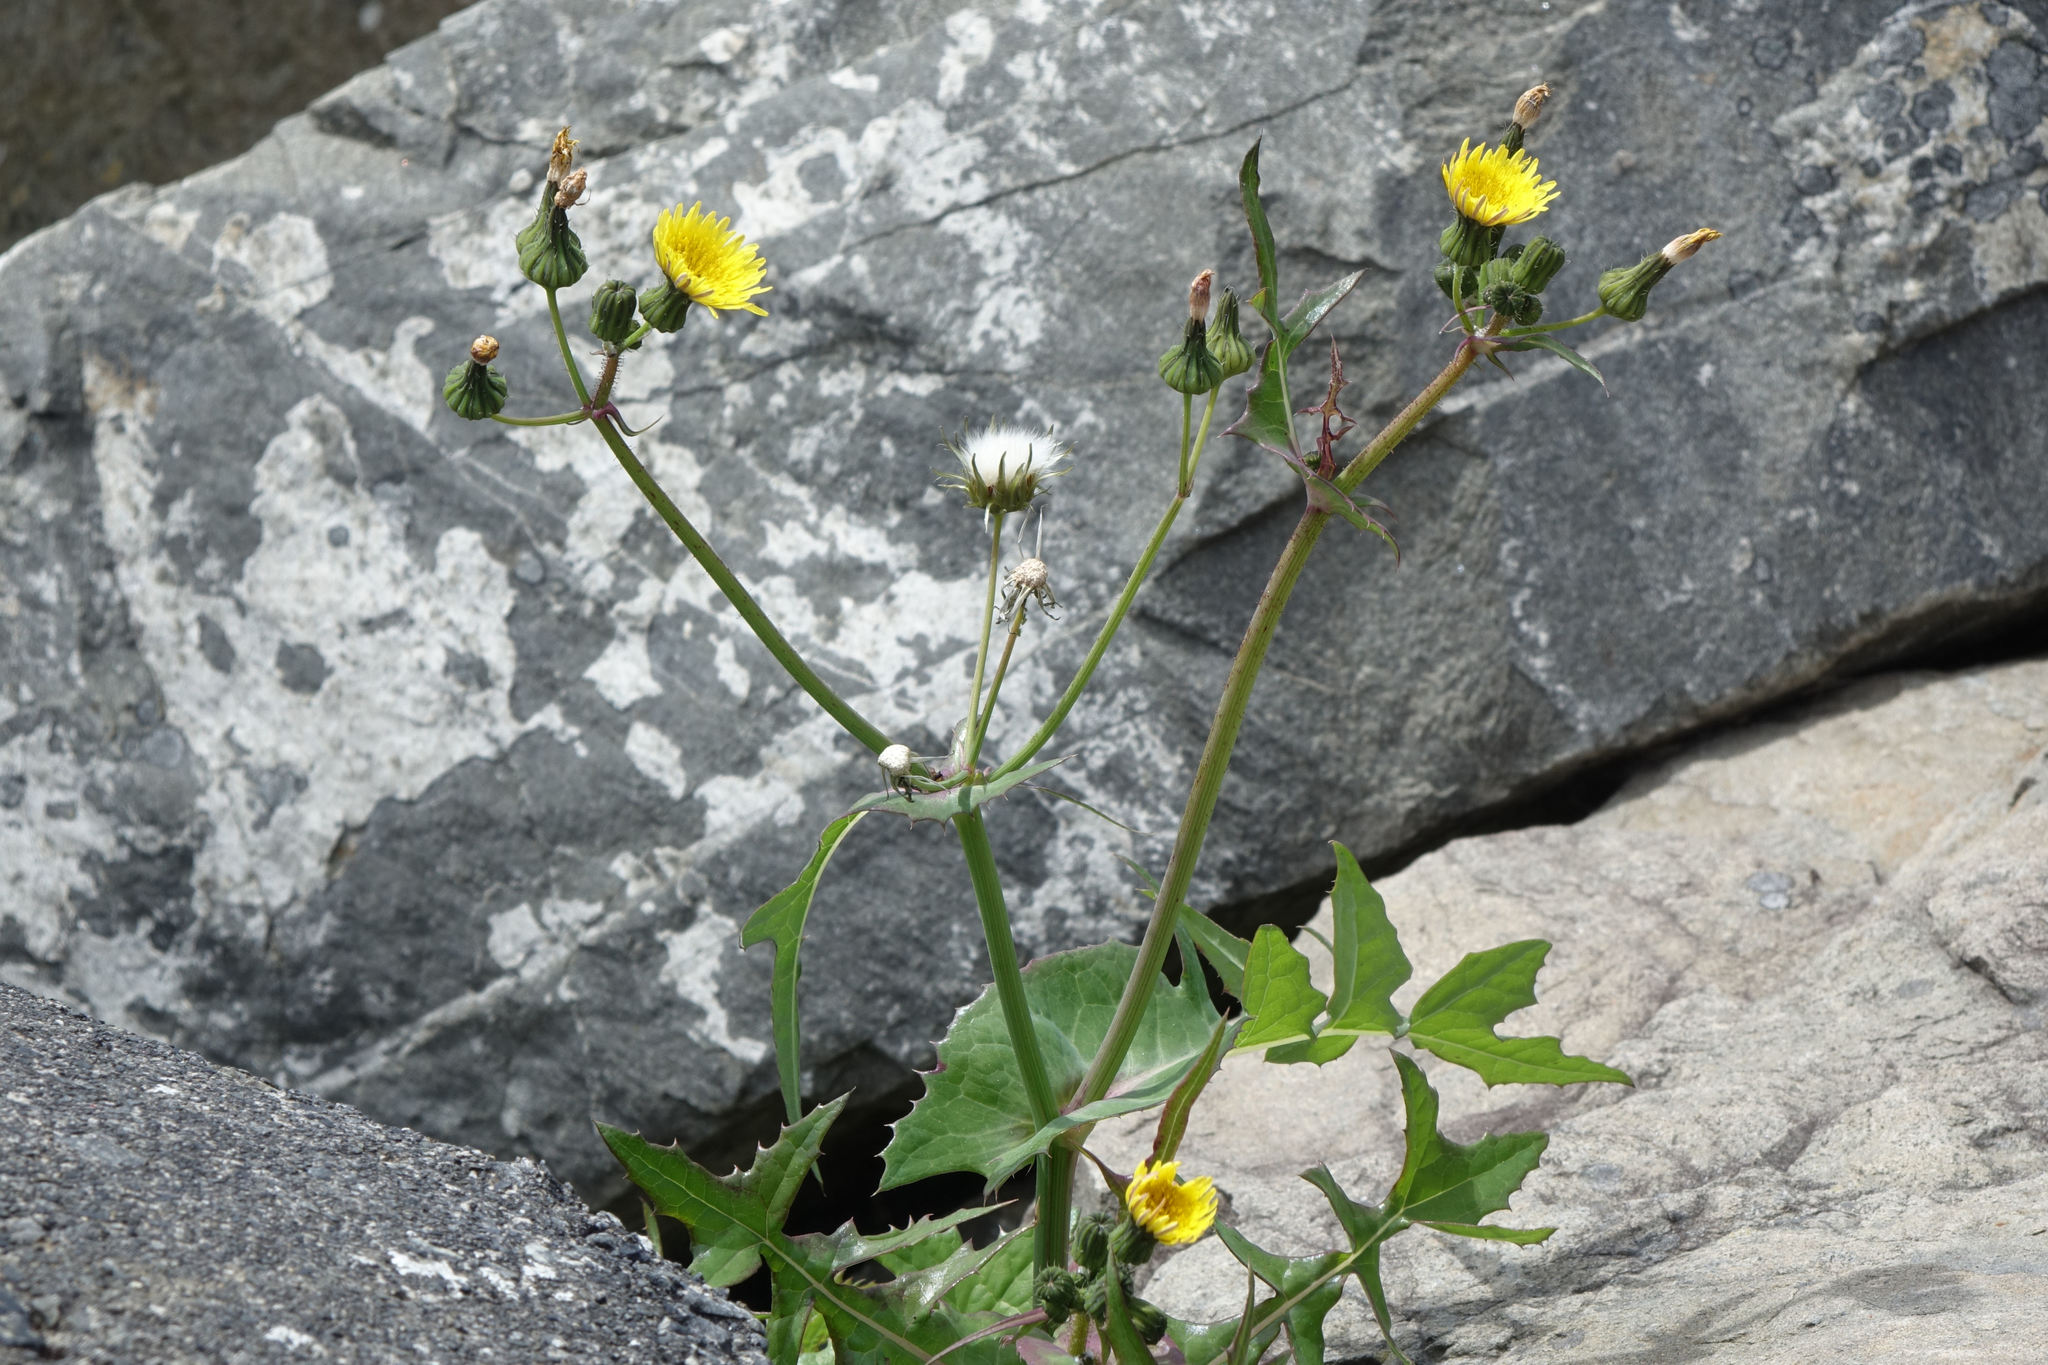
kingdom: Plantae
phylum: Tracheophyta
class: Magnoliopsida
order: Asterales
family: Asteraceae
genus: Sonchus
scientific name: Sonchus oleraceus
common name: Common sowthistle
